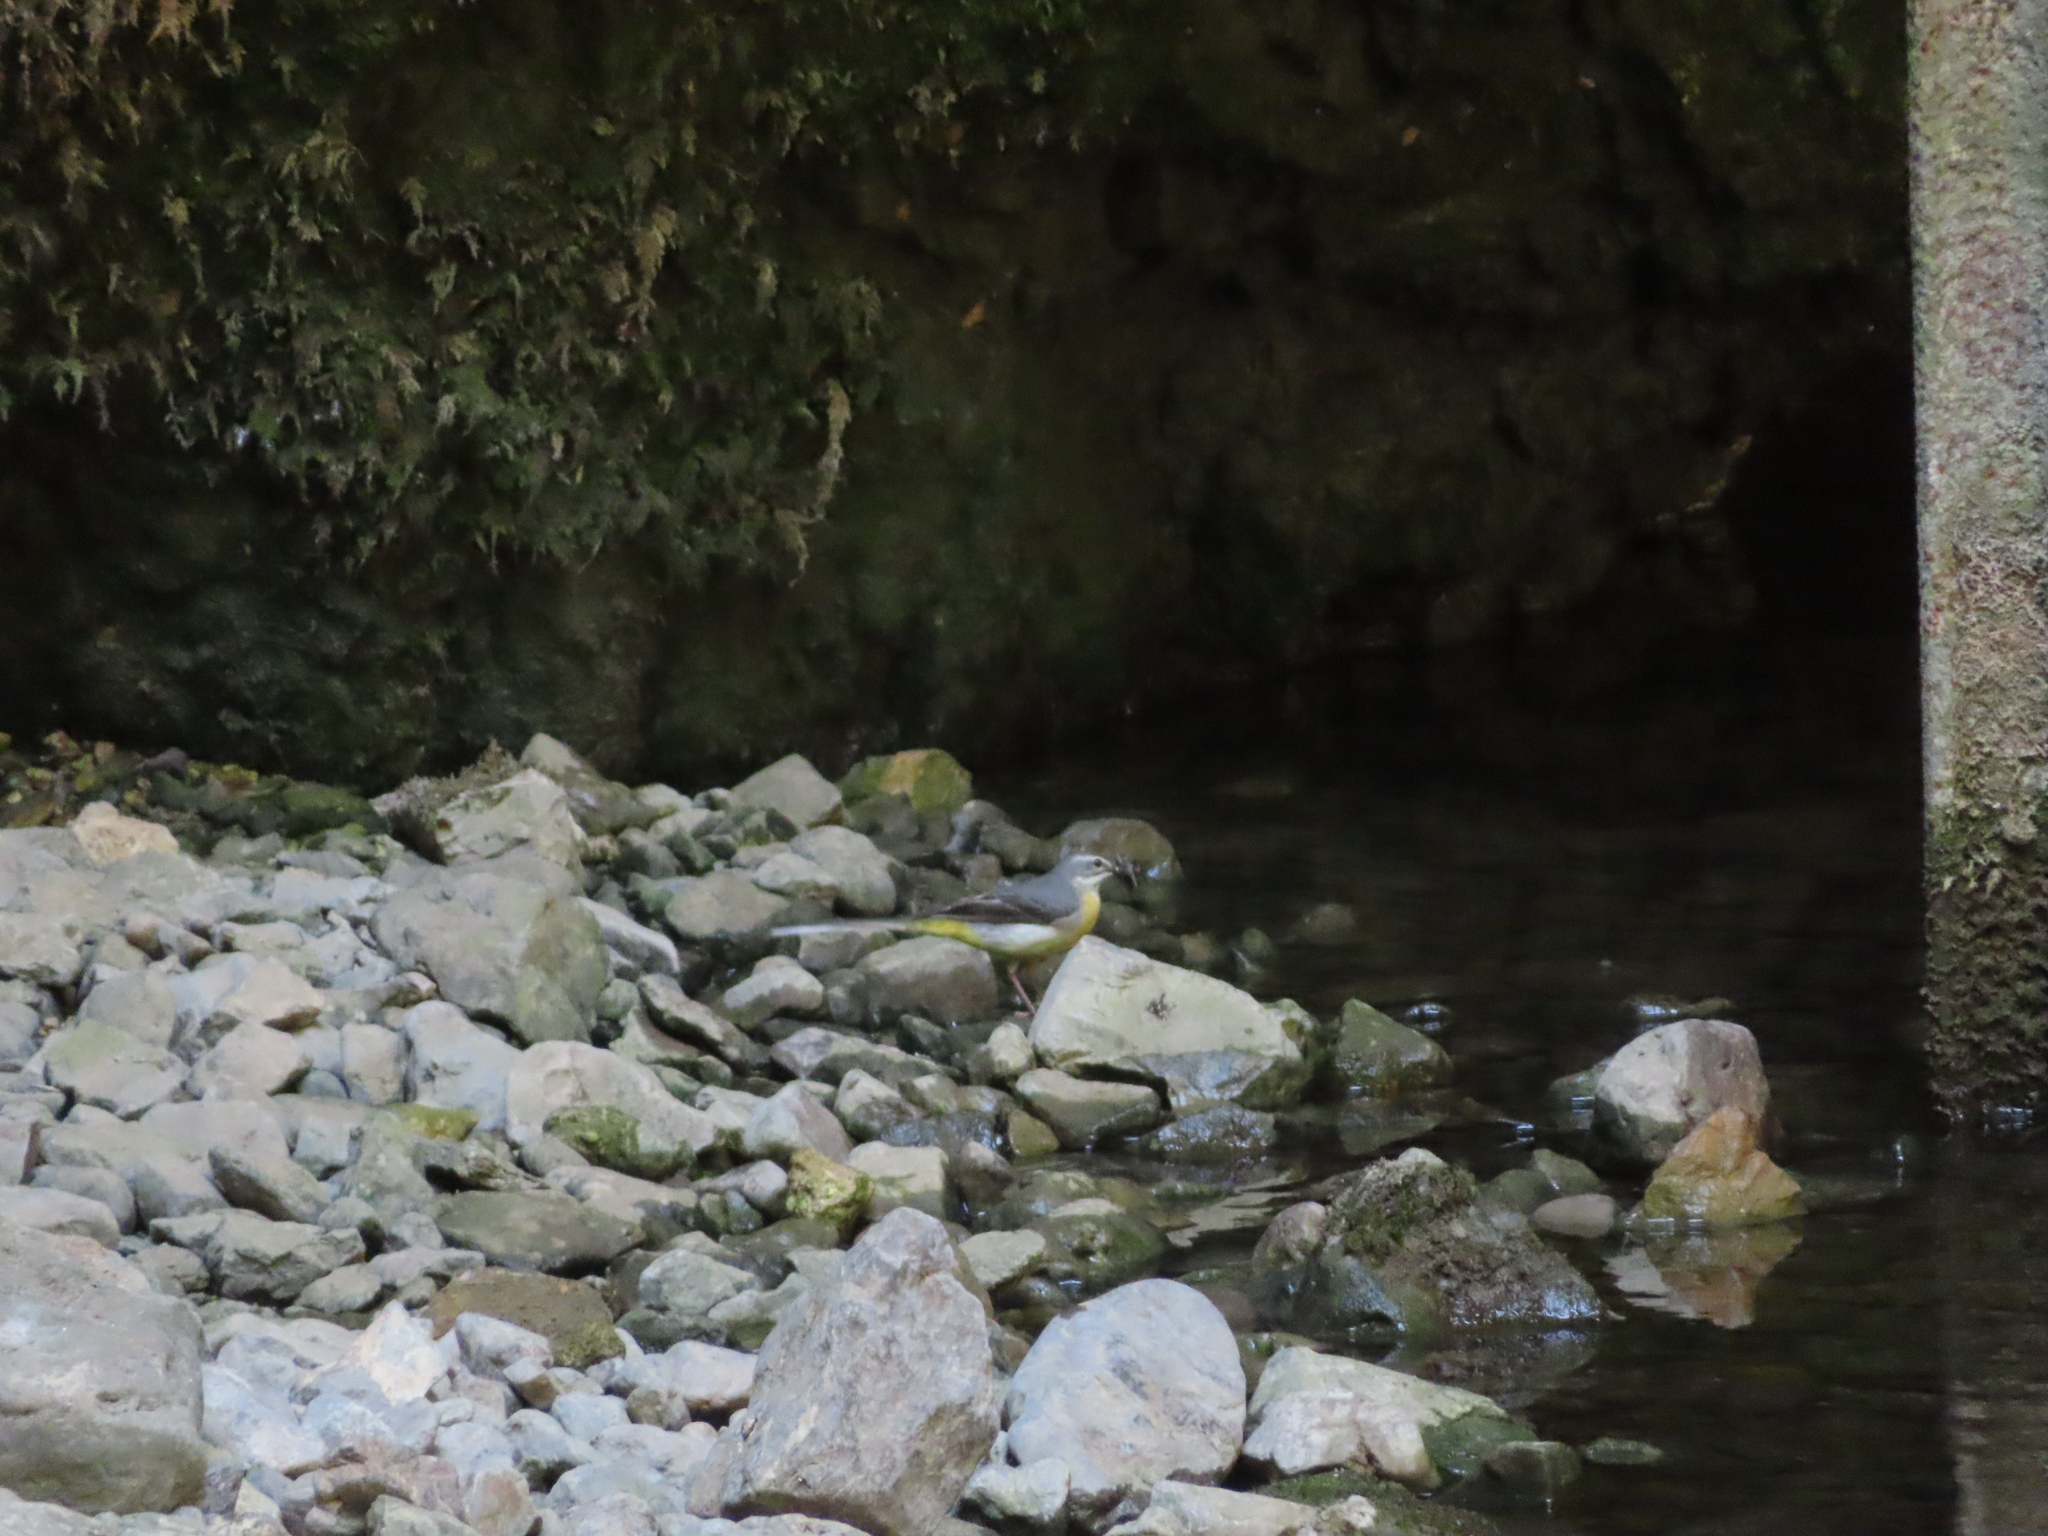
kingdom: Animalia
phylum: Chordata
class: Aves
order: Passeriformes
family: Motacillidae
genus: Motacilla
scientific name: Motacilla cinerea
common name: Grey wagtail
